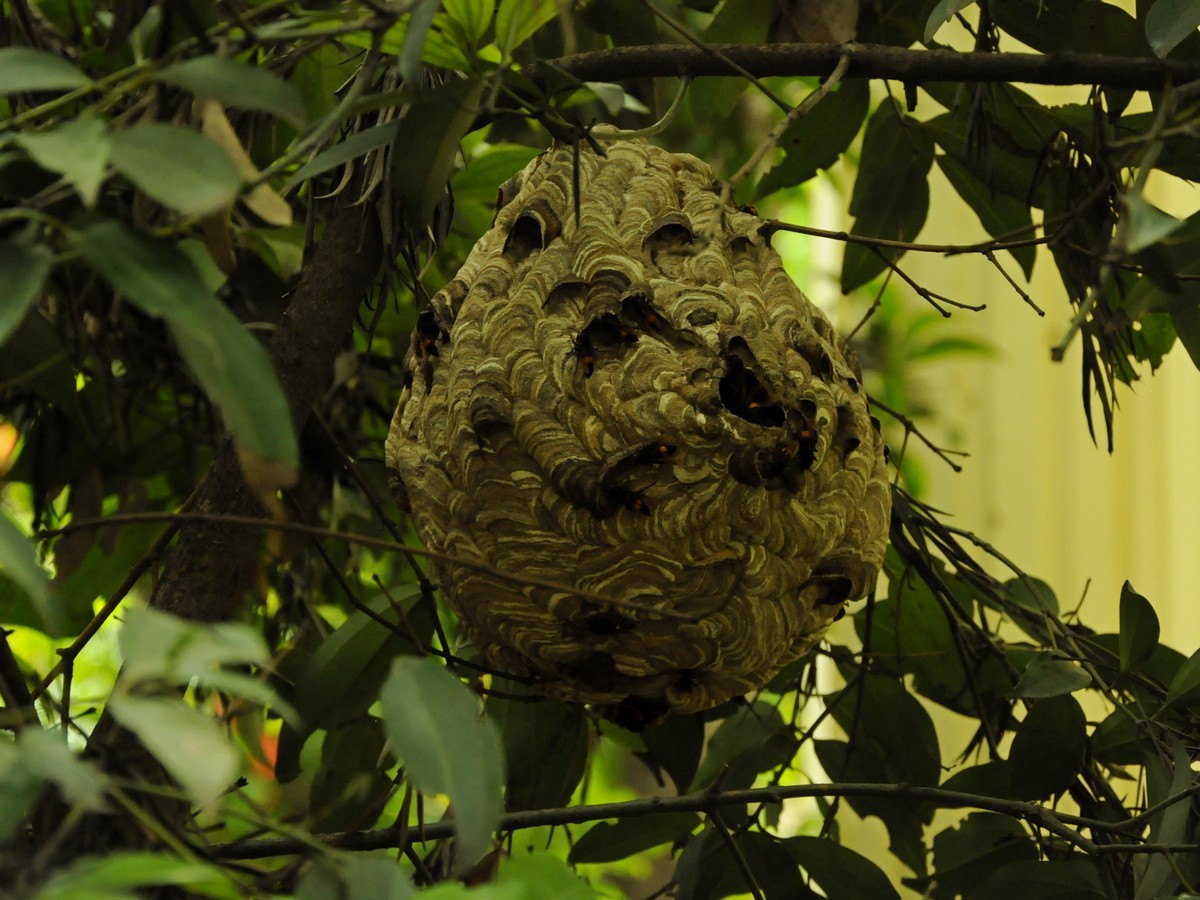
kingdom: Animalia
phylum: Arthropoda
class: Insecta
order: Hymenoptera
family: Vespidae
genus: Vespa
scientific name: Vespa affinis
